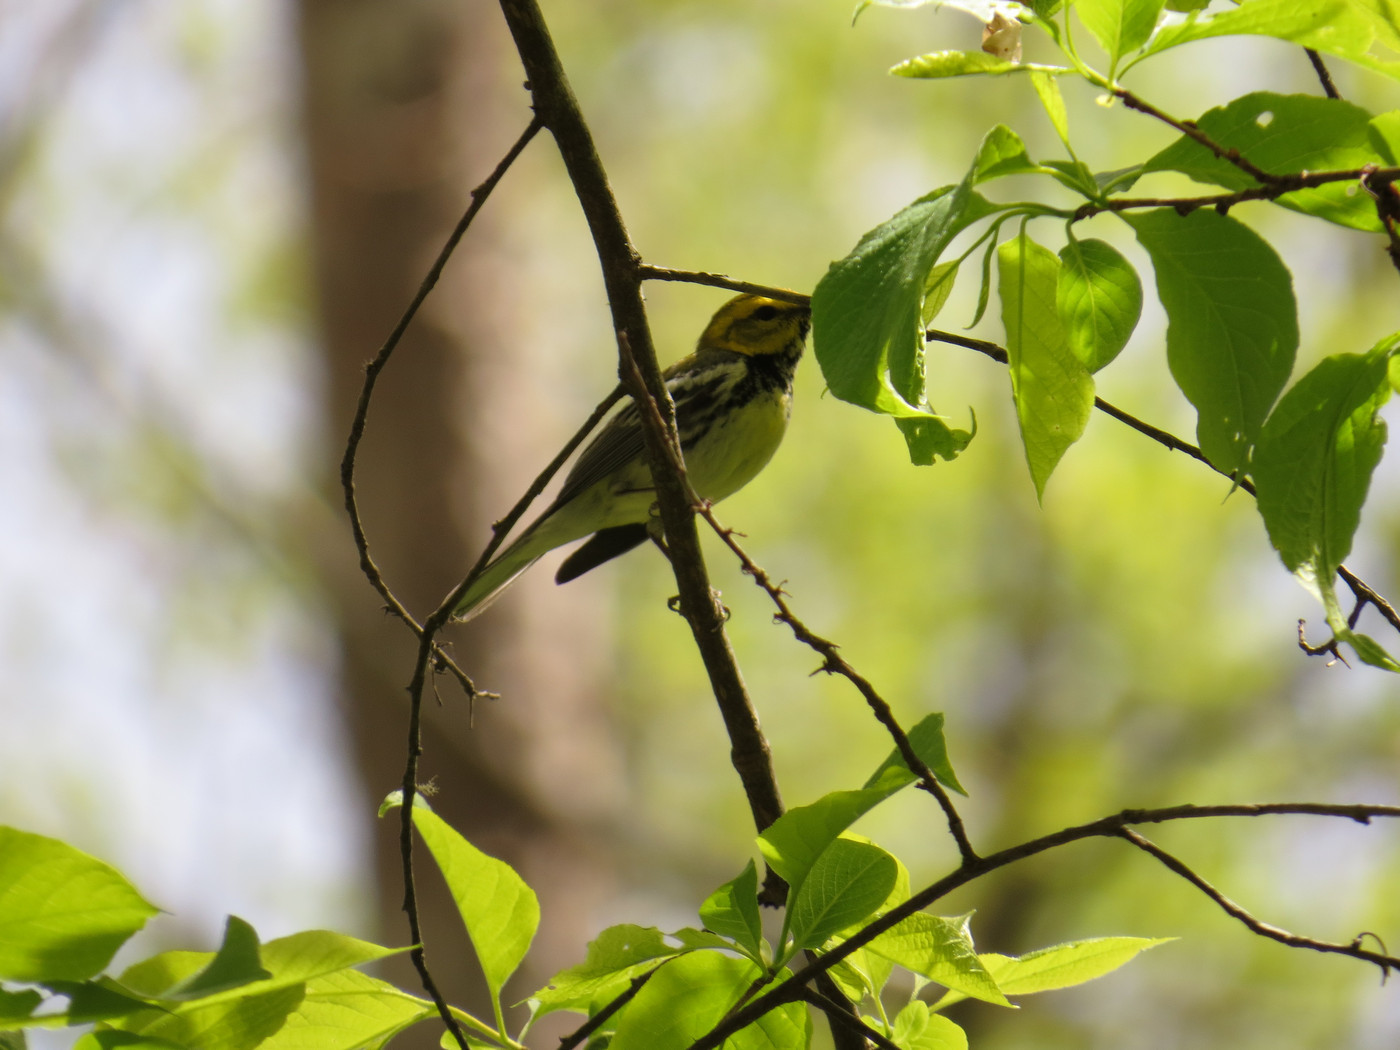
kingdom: Animalia
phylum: Chordata
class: Aves
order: Passeriformes
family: Parulidae
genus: Setophaga
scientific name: Setophaga virens
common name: Black-throated green warbler
